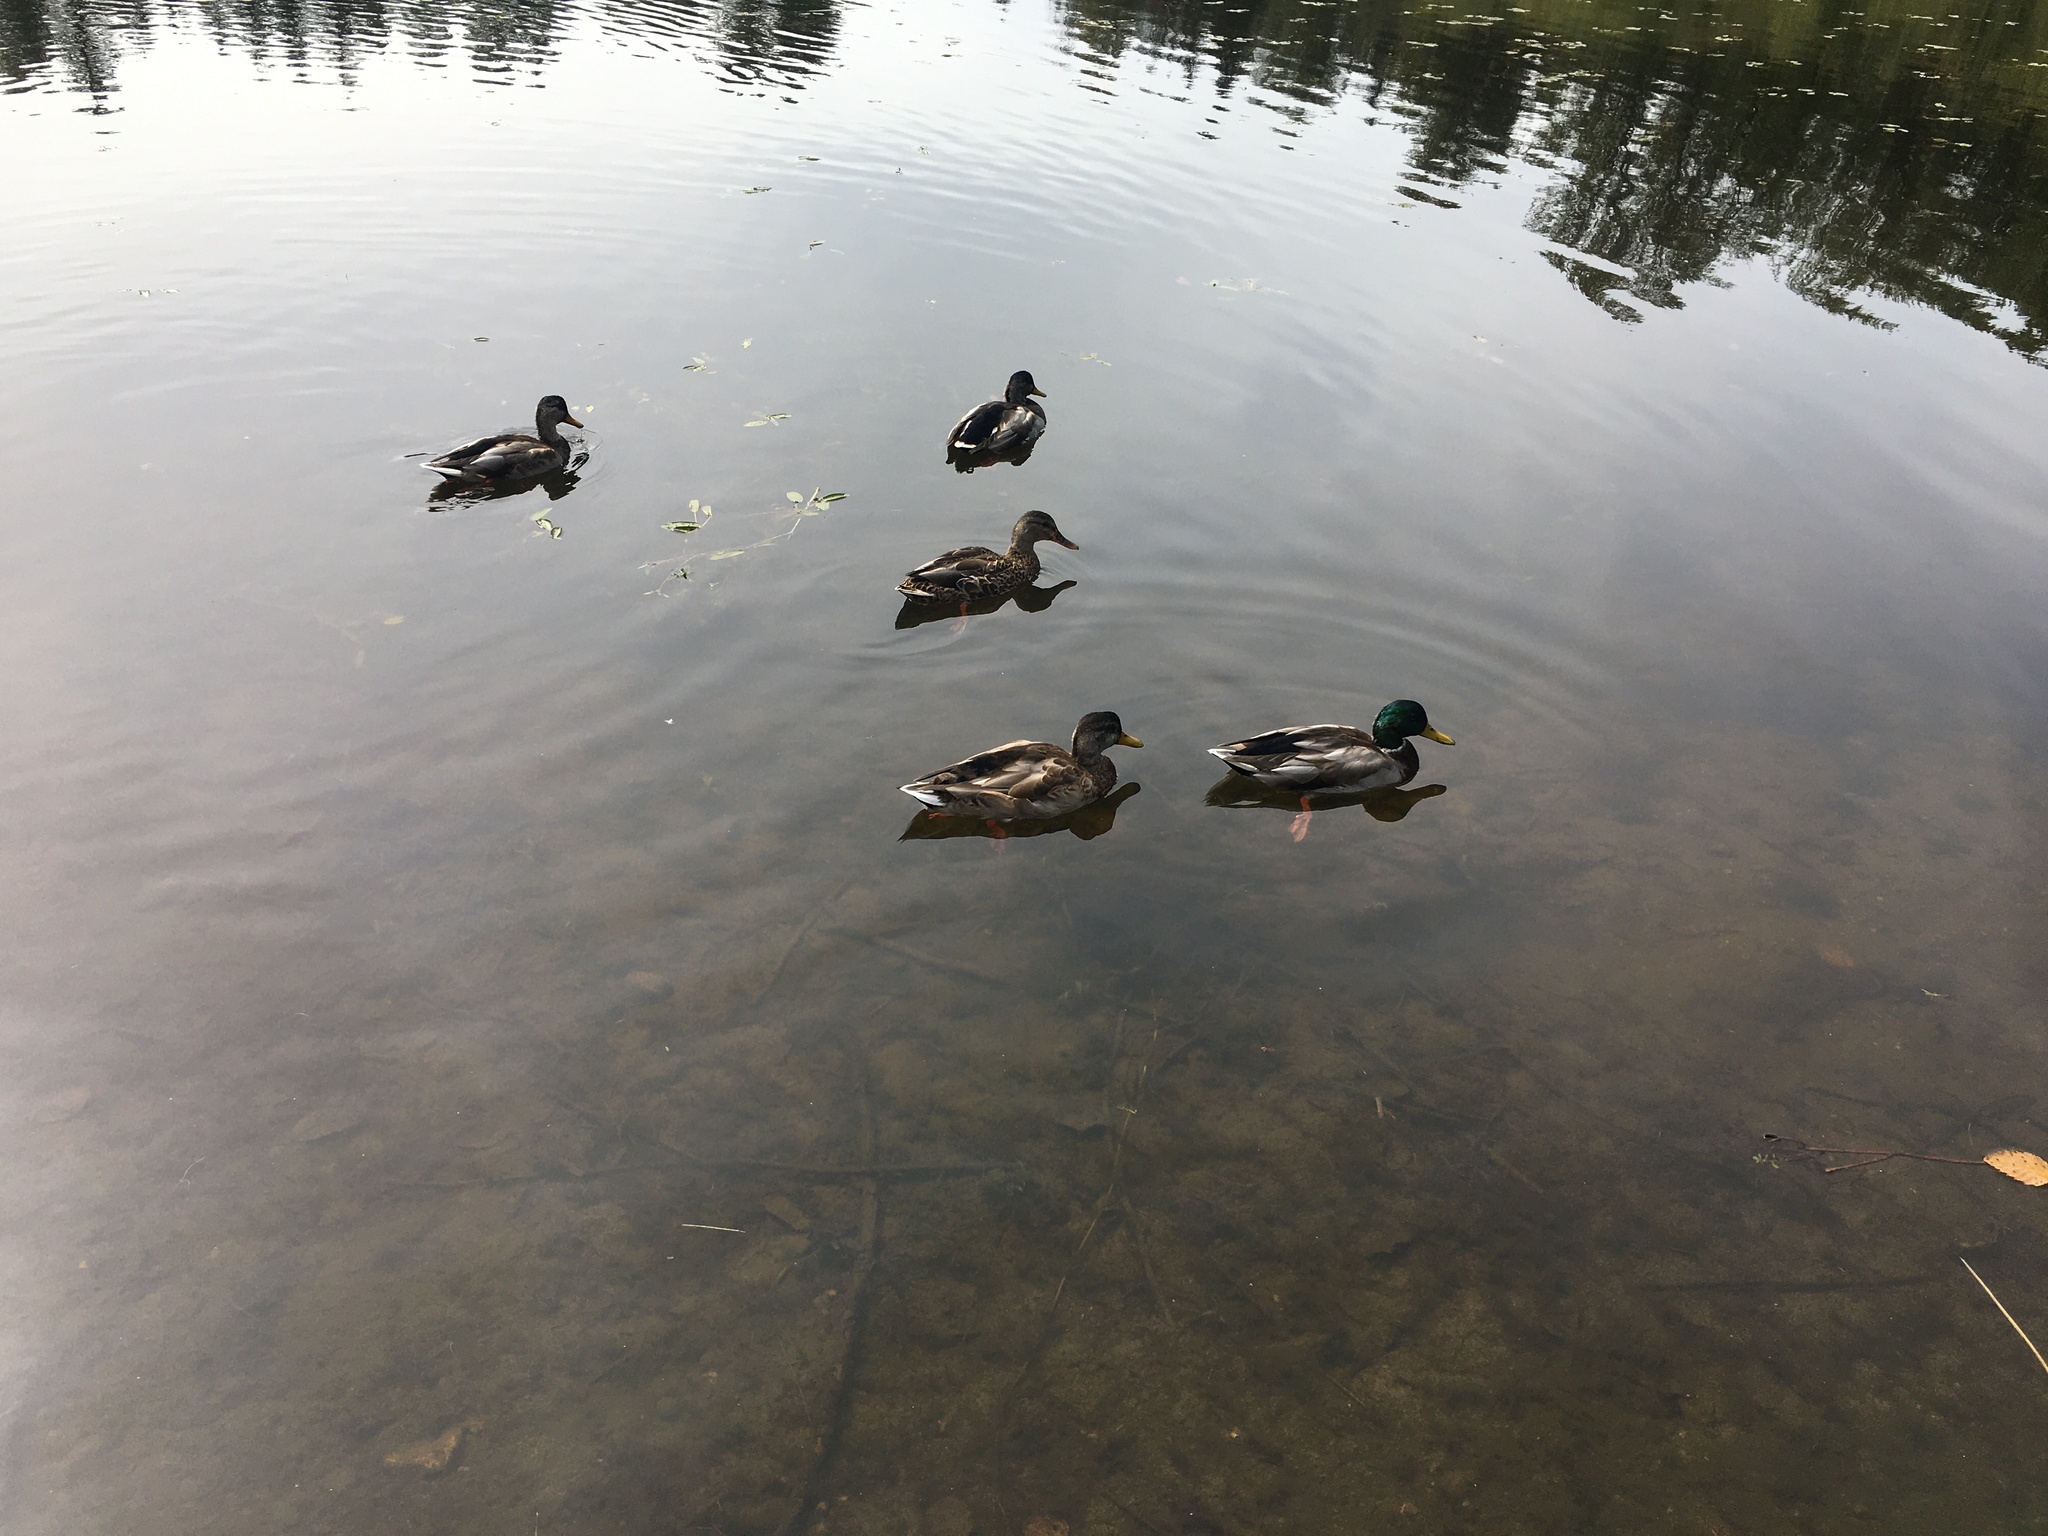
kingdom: Animalia
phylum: Chordata
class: Aves
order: Anseriformes
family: Anatidae
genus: Anas
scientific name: Anas platyrhynchos
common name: Mallard
